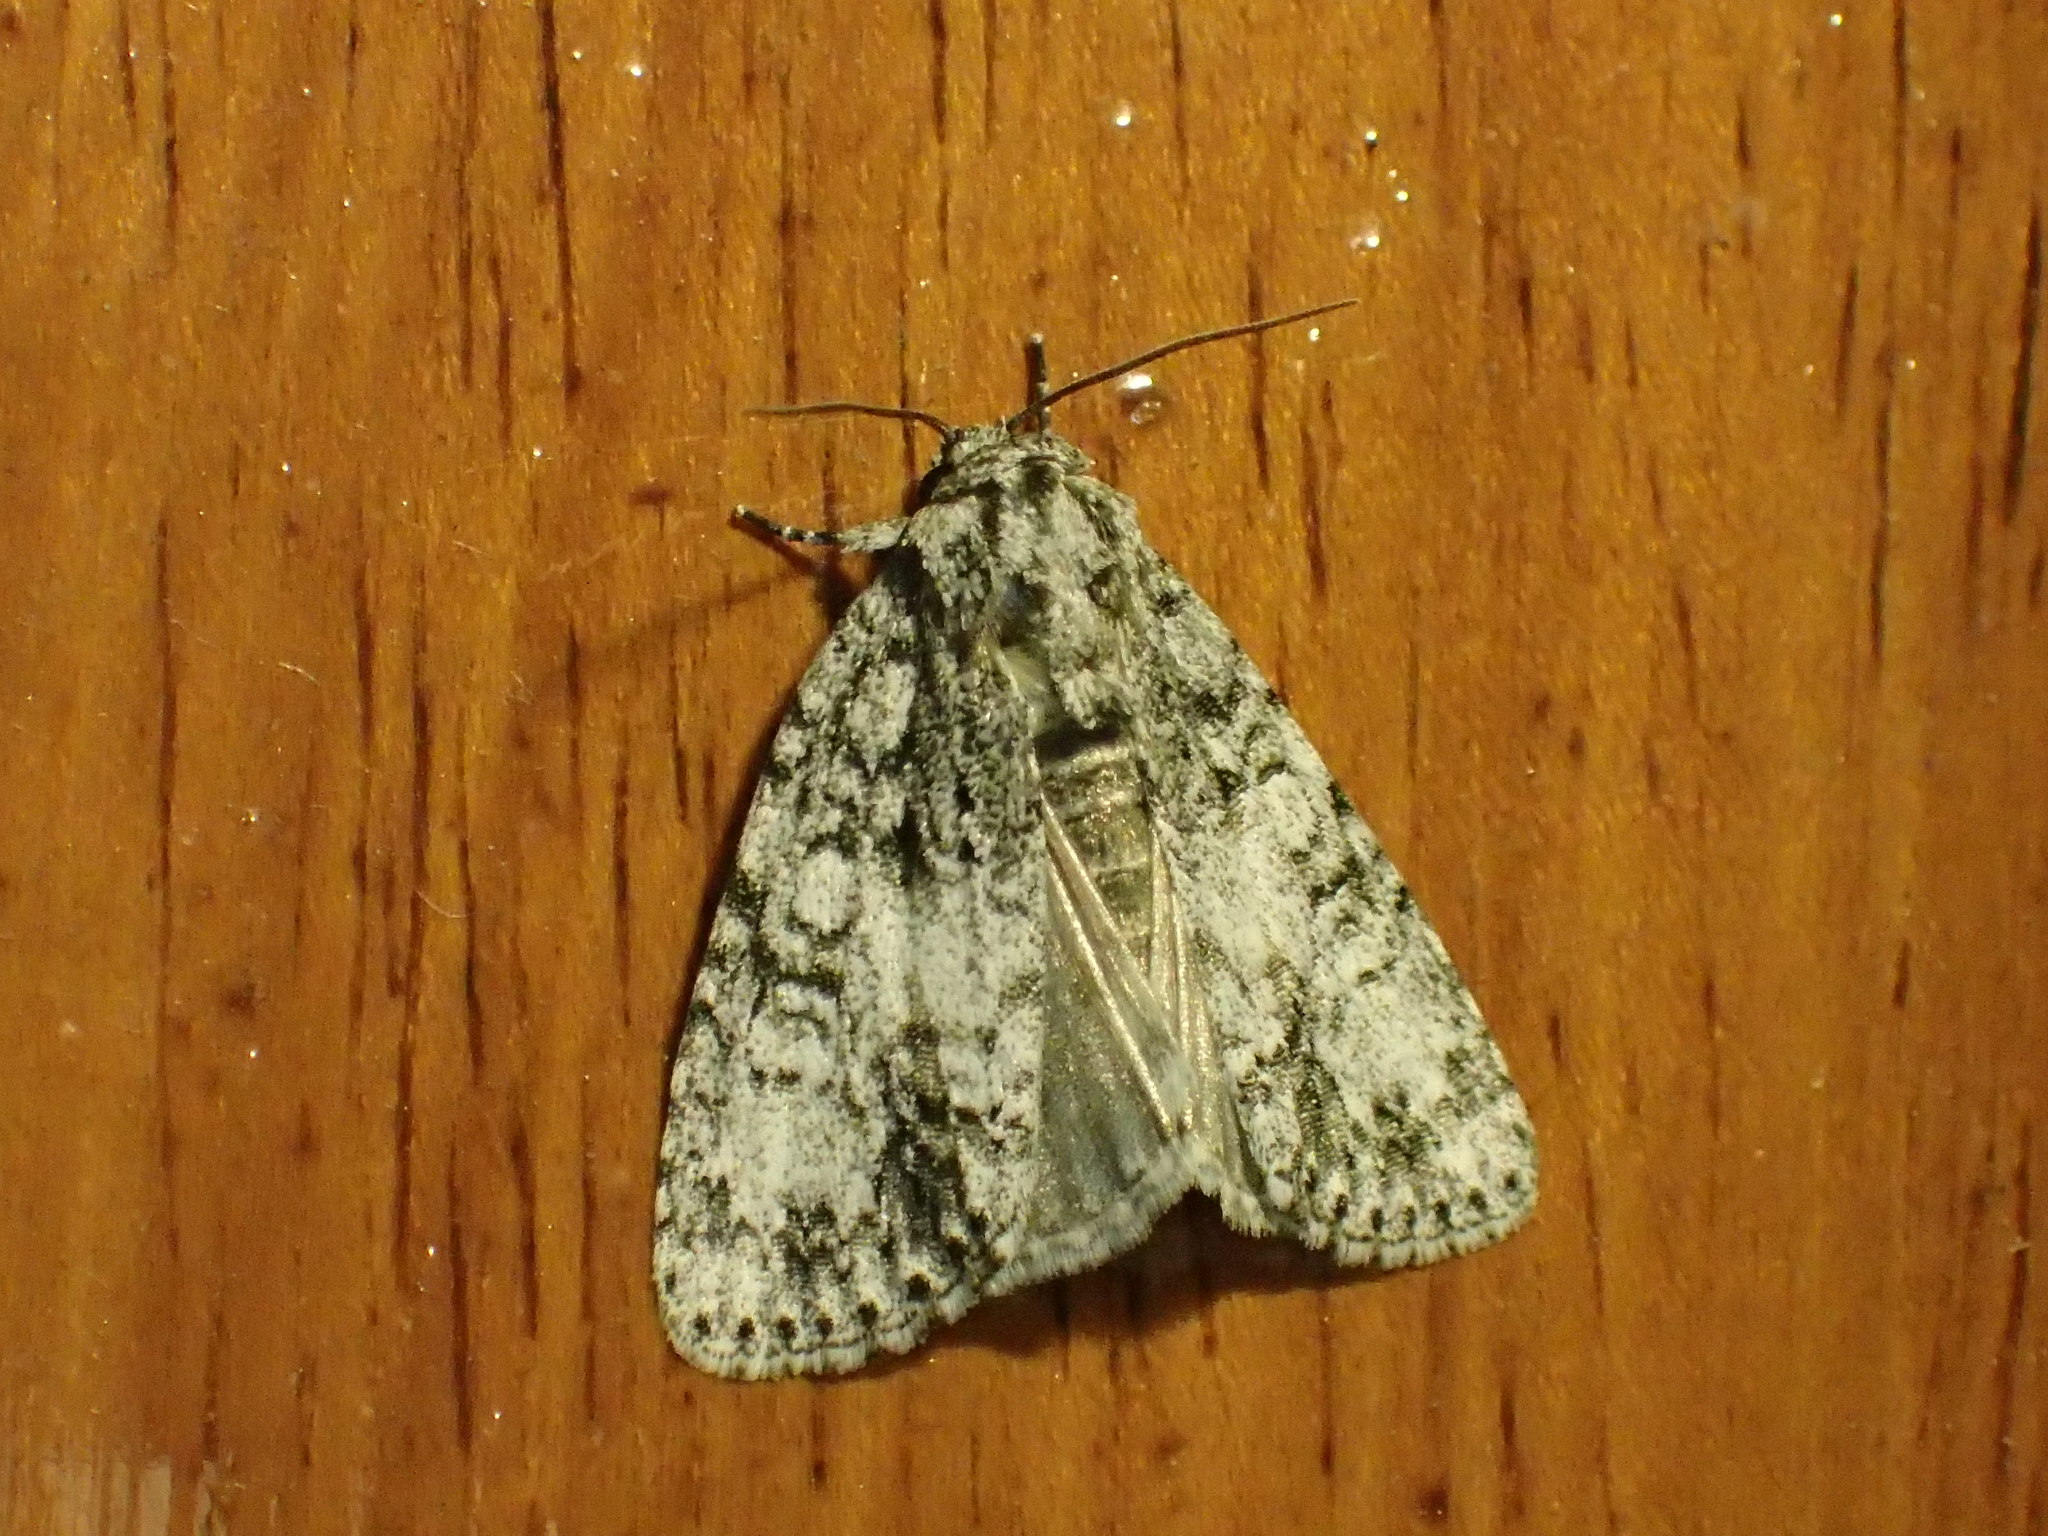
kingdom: Animalia
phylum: Arthropoda
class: Insecta
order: Lepidoptera
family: Noctuidae
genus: Acronicta
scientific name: Acronicta retardata
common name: Maple dagger
